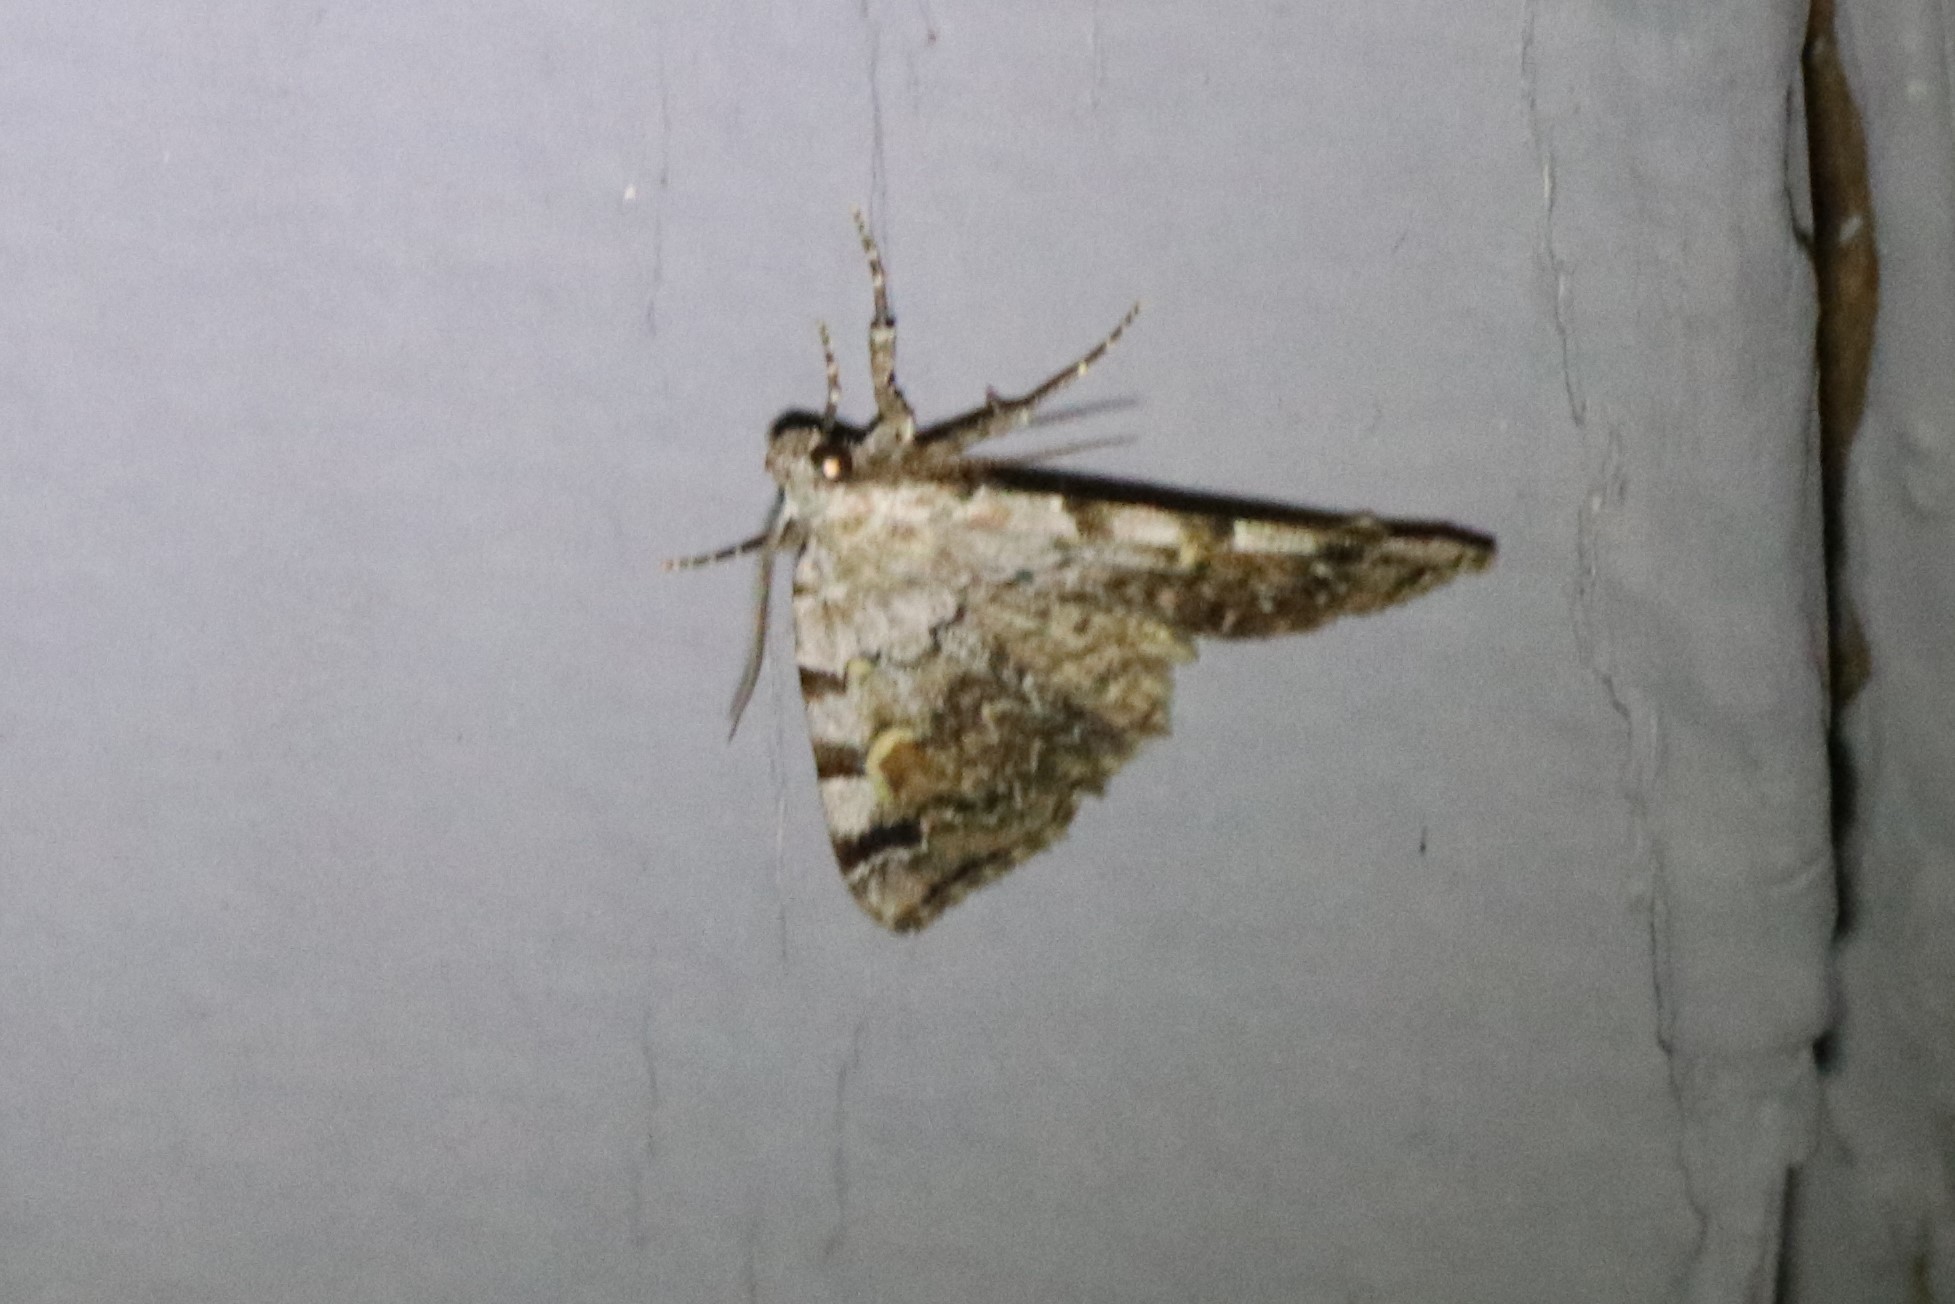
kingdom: Animalia
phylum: Arthropoda
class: Insecta
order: Lepidoptera
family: Erebidae
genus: Idia
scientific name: Idia americalis
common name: American idia moth
